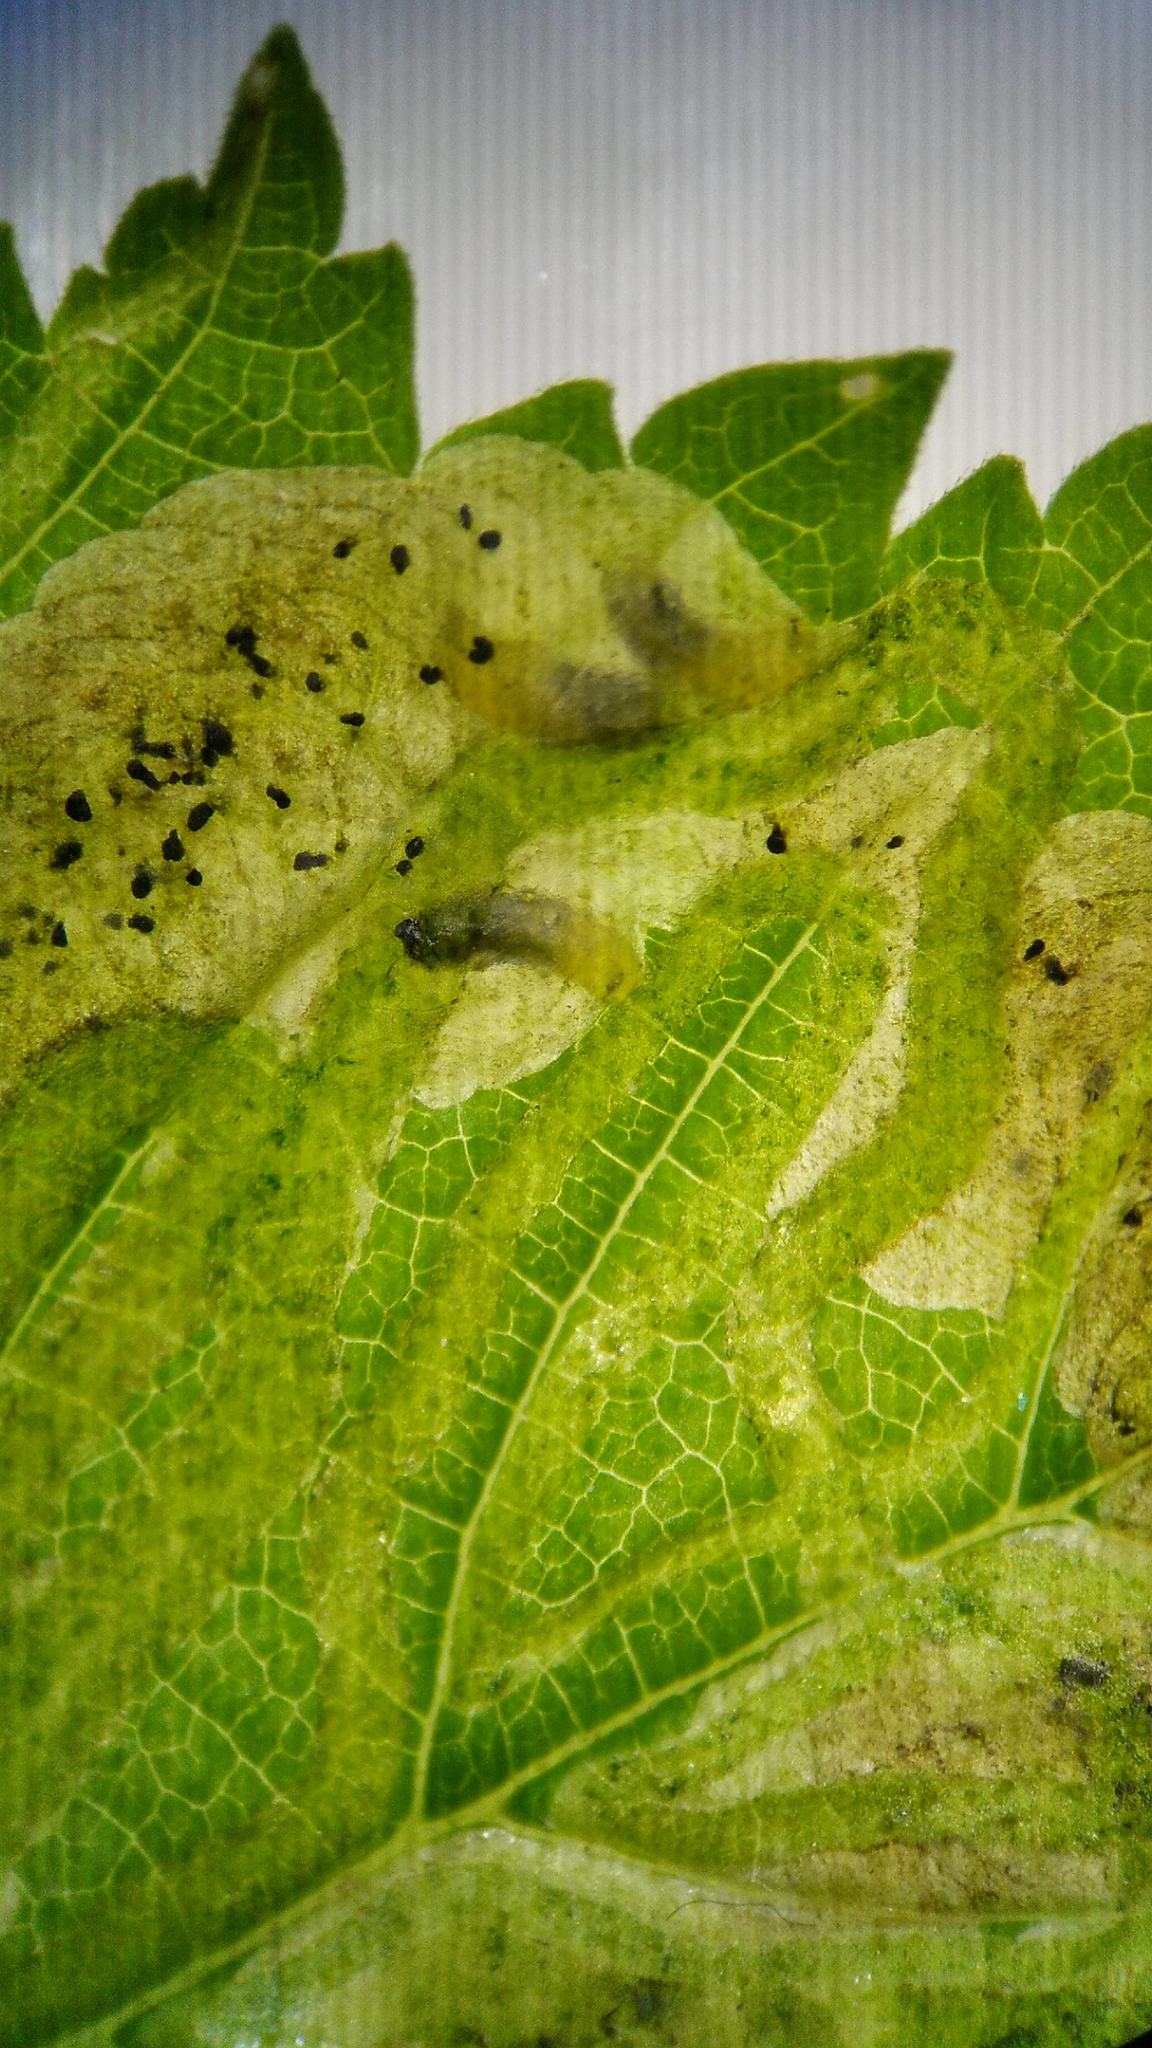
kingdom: Animalia
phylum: Arthropoda
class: Insecta
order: Diptera
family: Agromyzidae
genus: Agromyza
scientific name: Agromyza aristata
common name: Elm agromyzid leafminer
